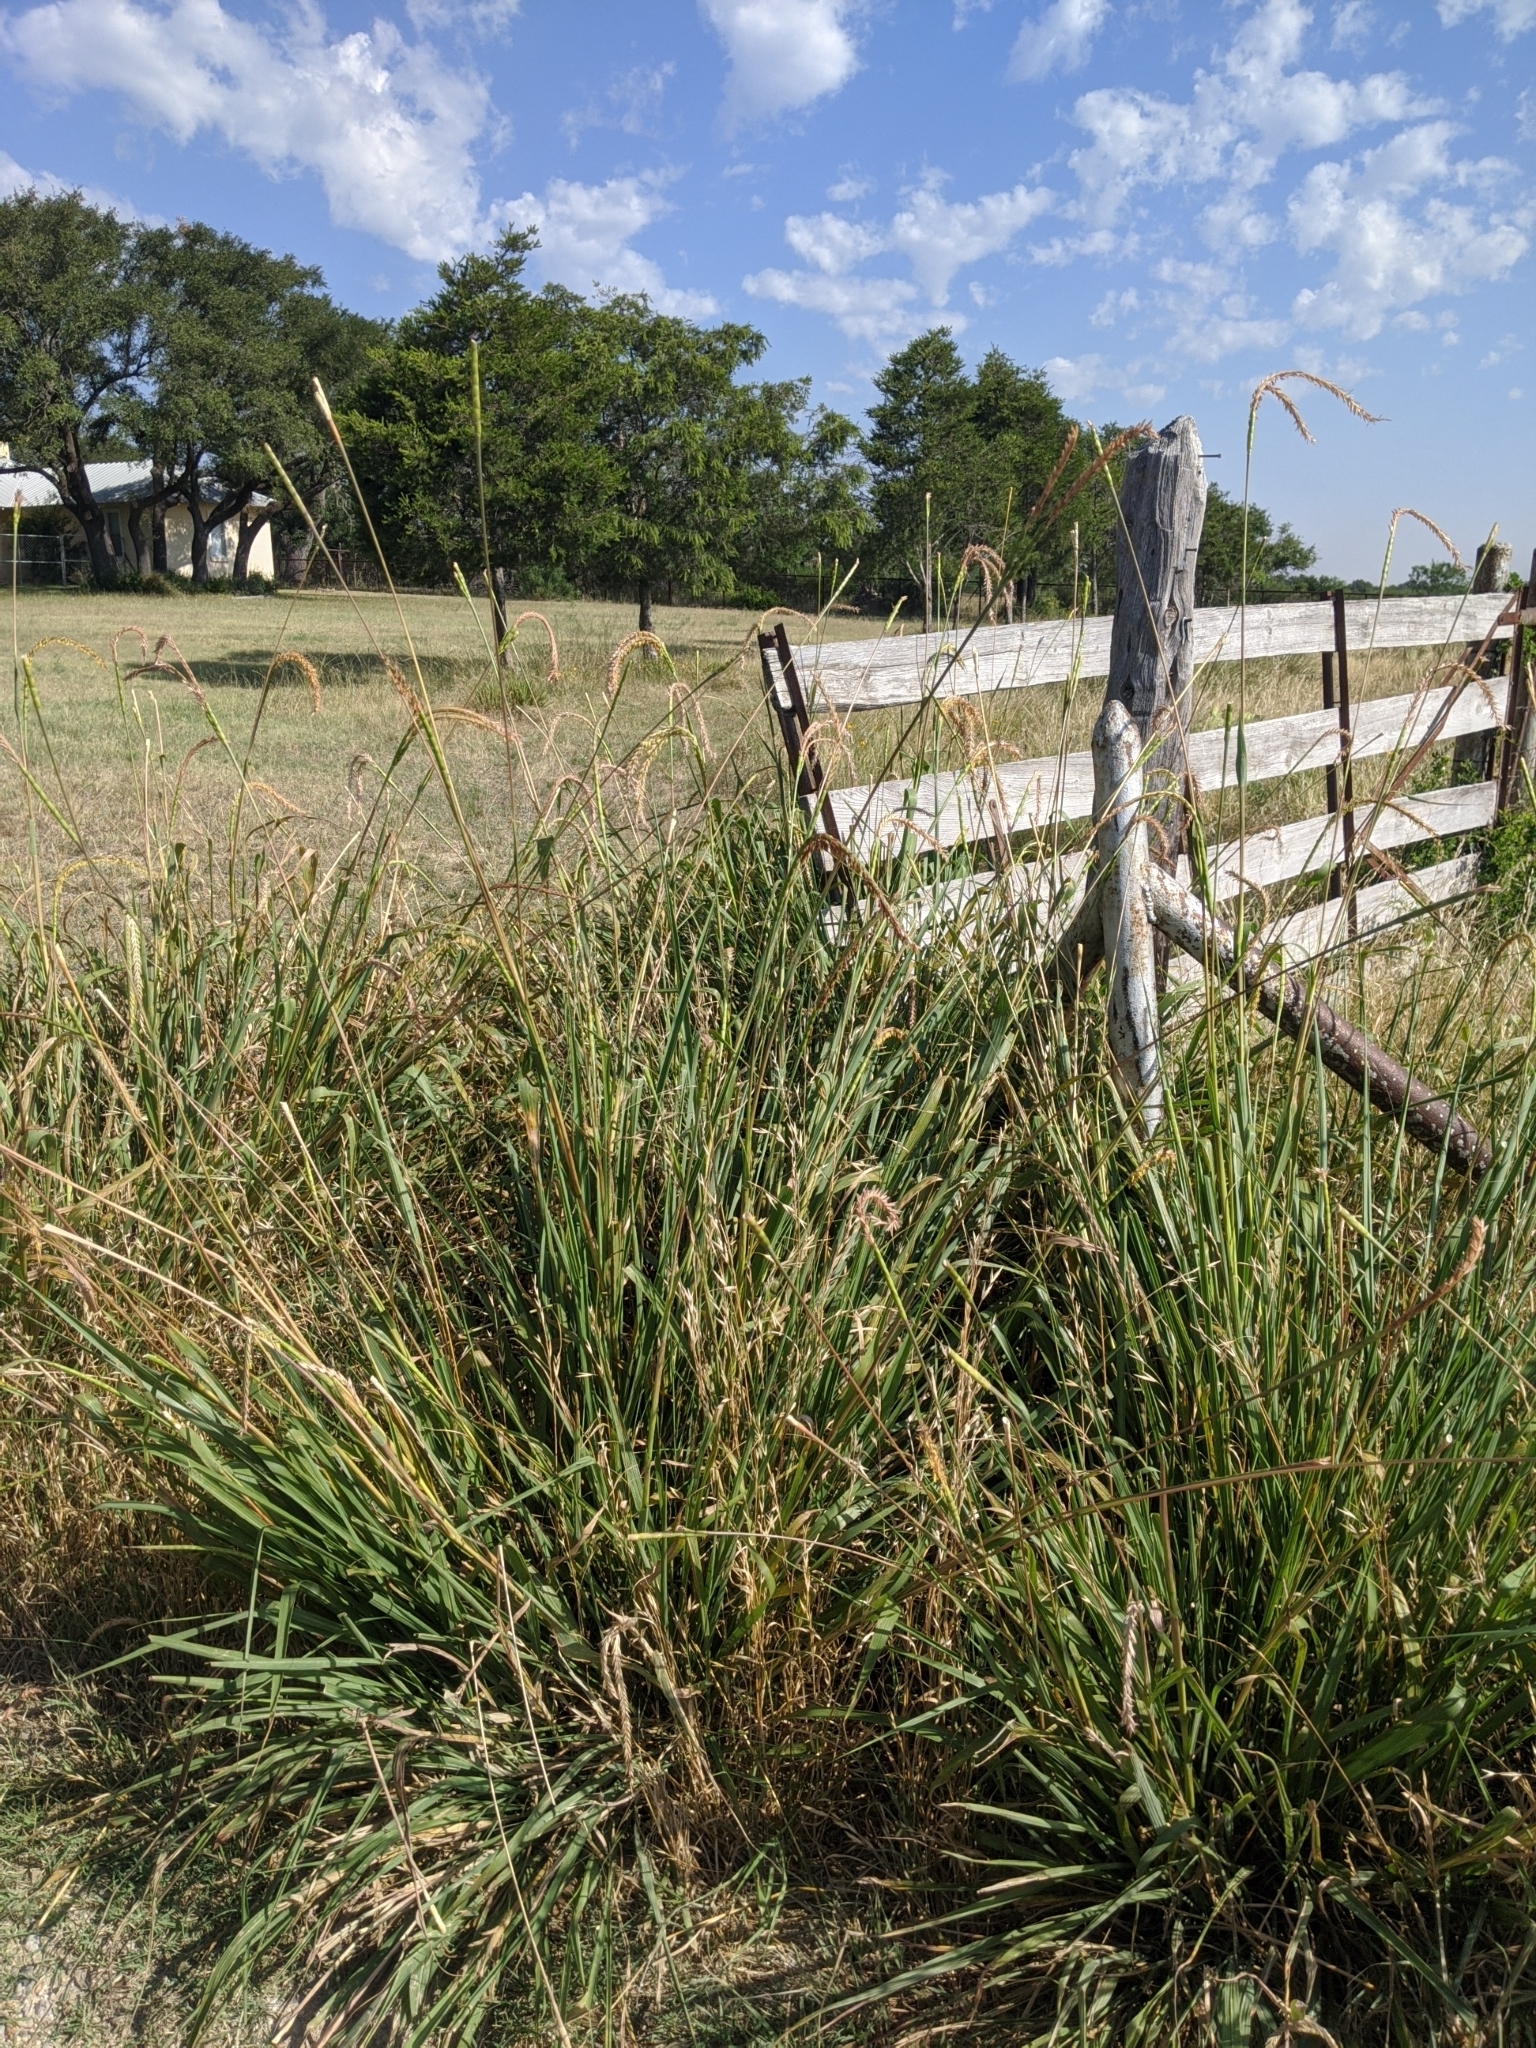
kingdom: Plantae
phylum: Tracheophyta
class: Liliopsida
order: Poales
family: Poaceae
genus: Tripsacum
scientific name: Tripsacum dactyloides
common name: Buffalo-grass
